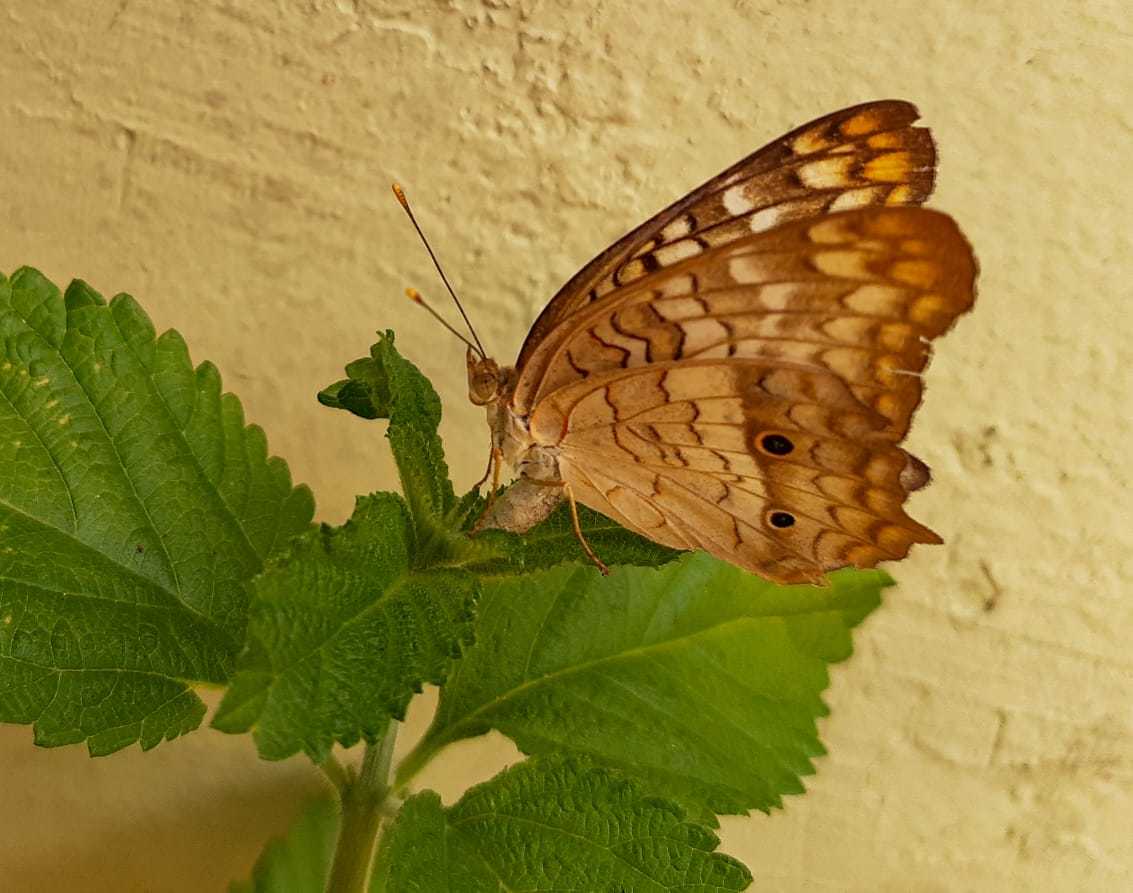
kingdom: Animalia
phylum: Arthropoda
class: Insecta
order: Lepidoptera
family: Nymphalidae
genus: Anartia
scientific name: Anartia jatrophae
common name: White peacock
